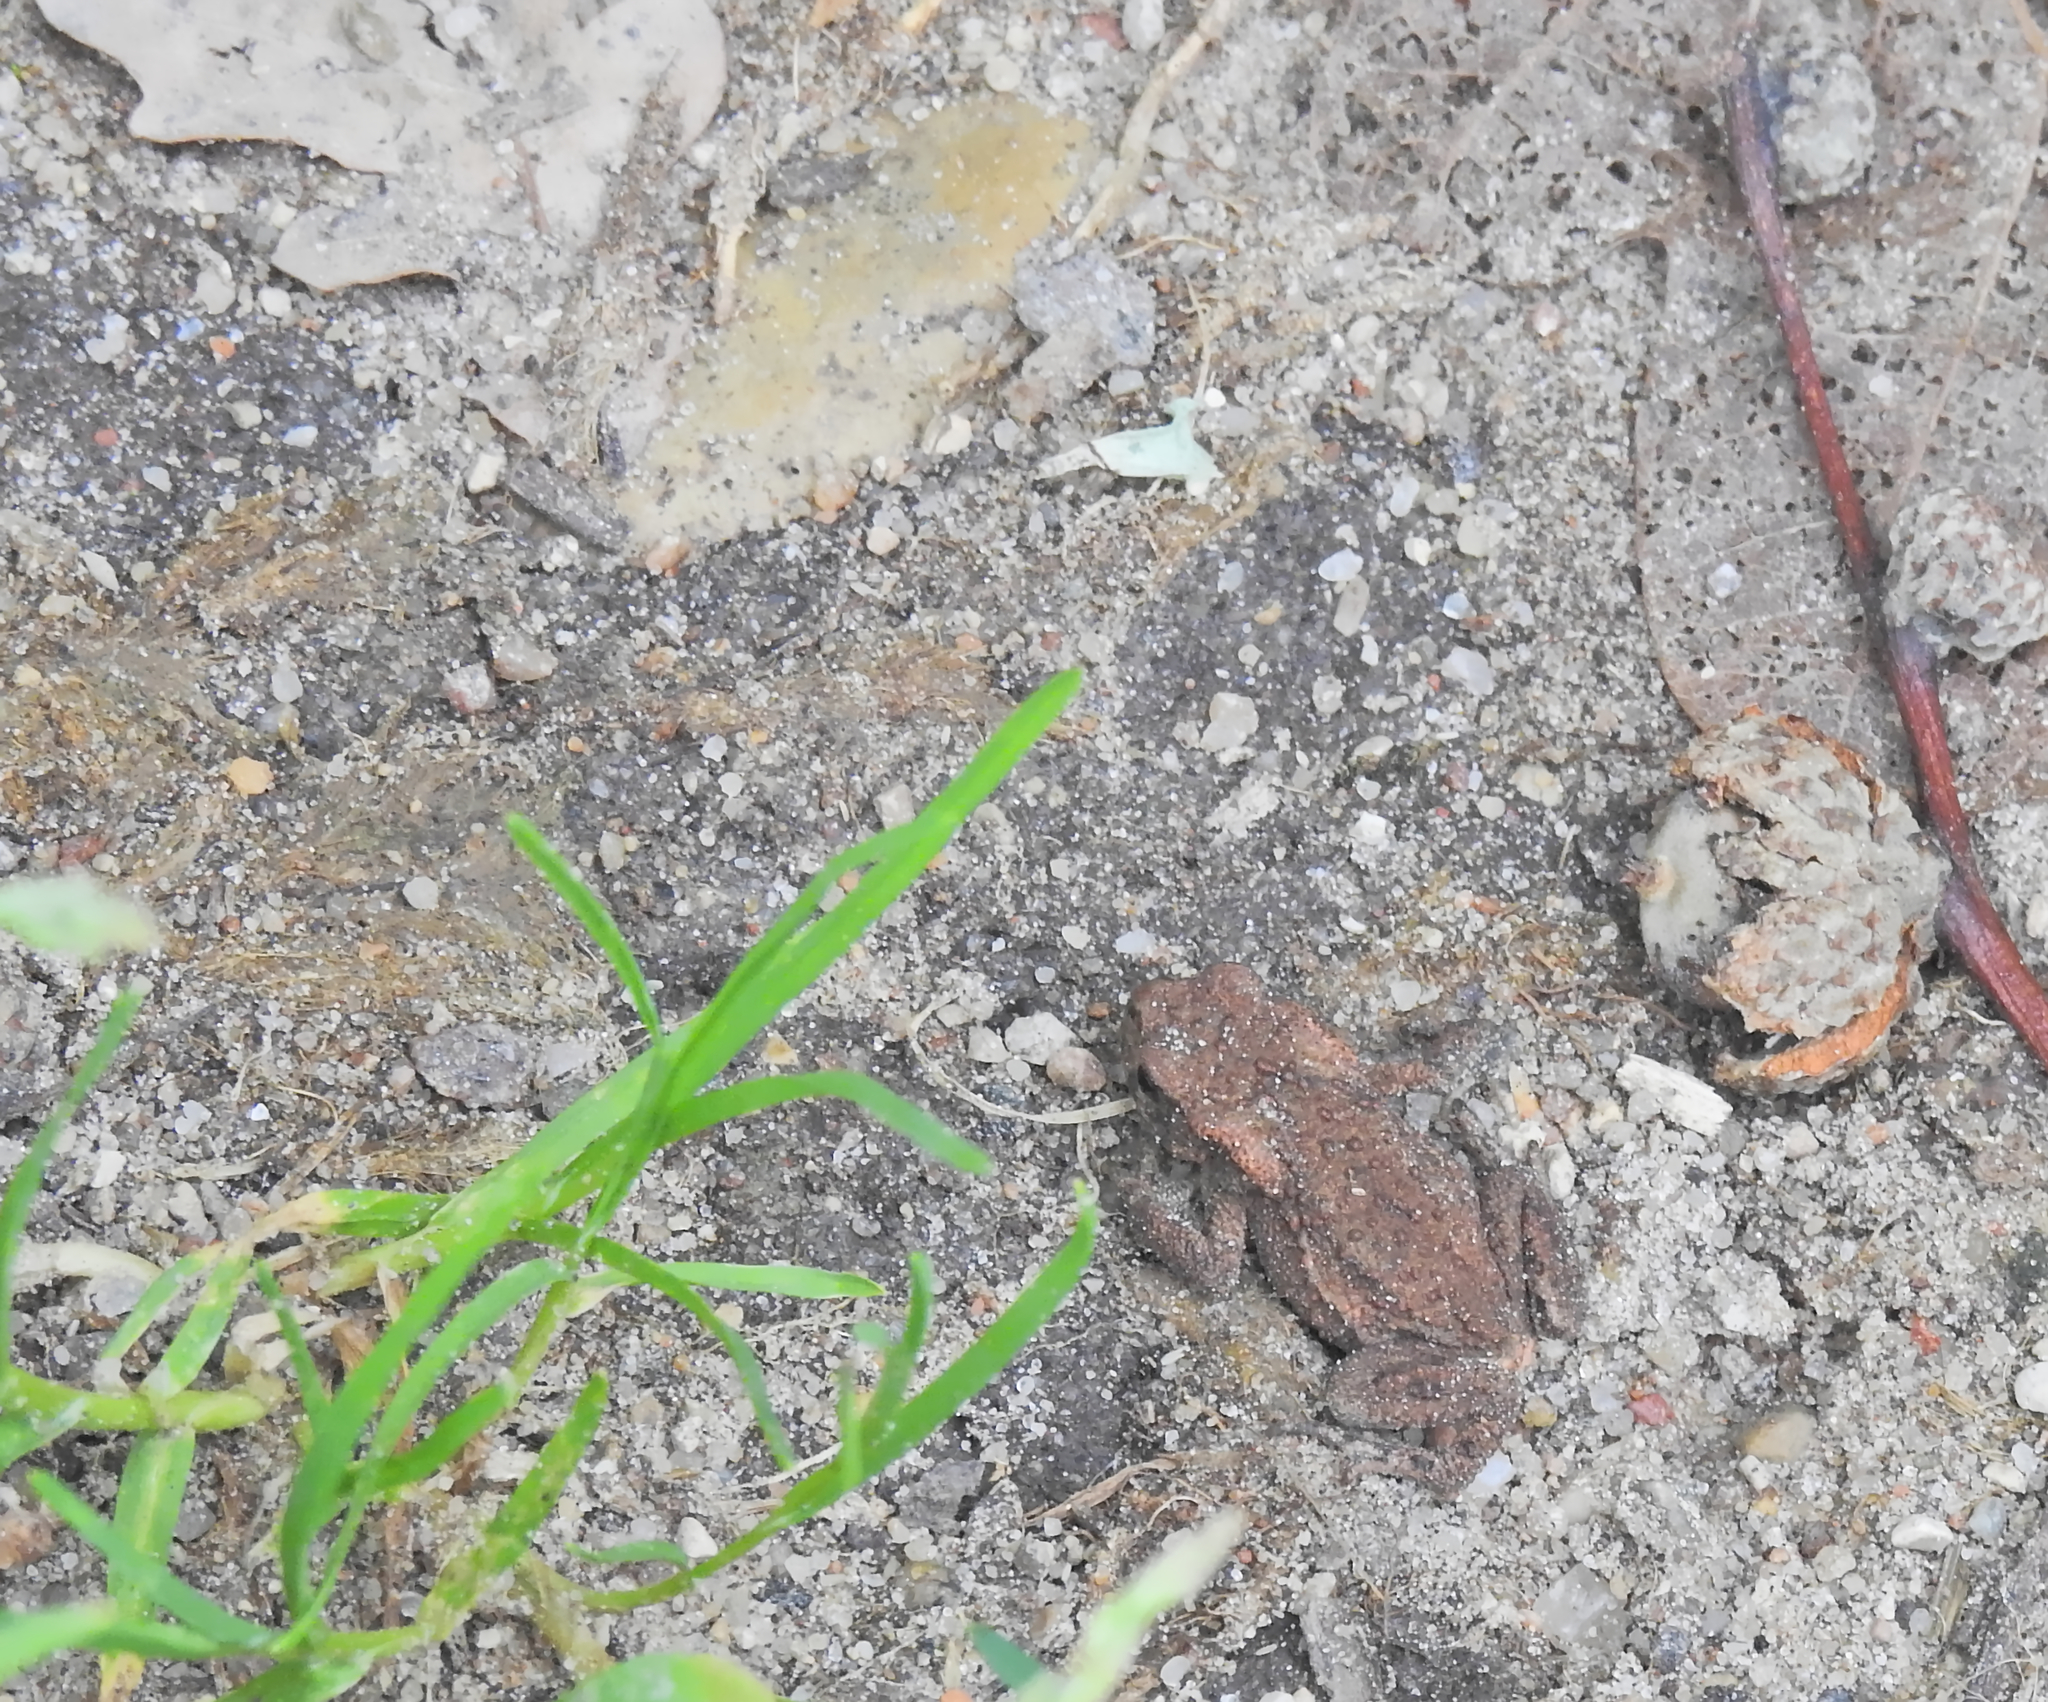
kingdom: Animalia
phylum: Chordata
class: Amphibia
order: Anura
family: Bufonidae
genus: Bufo
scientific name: Bufo bufo
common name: Common toad
